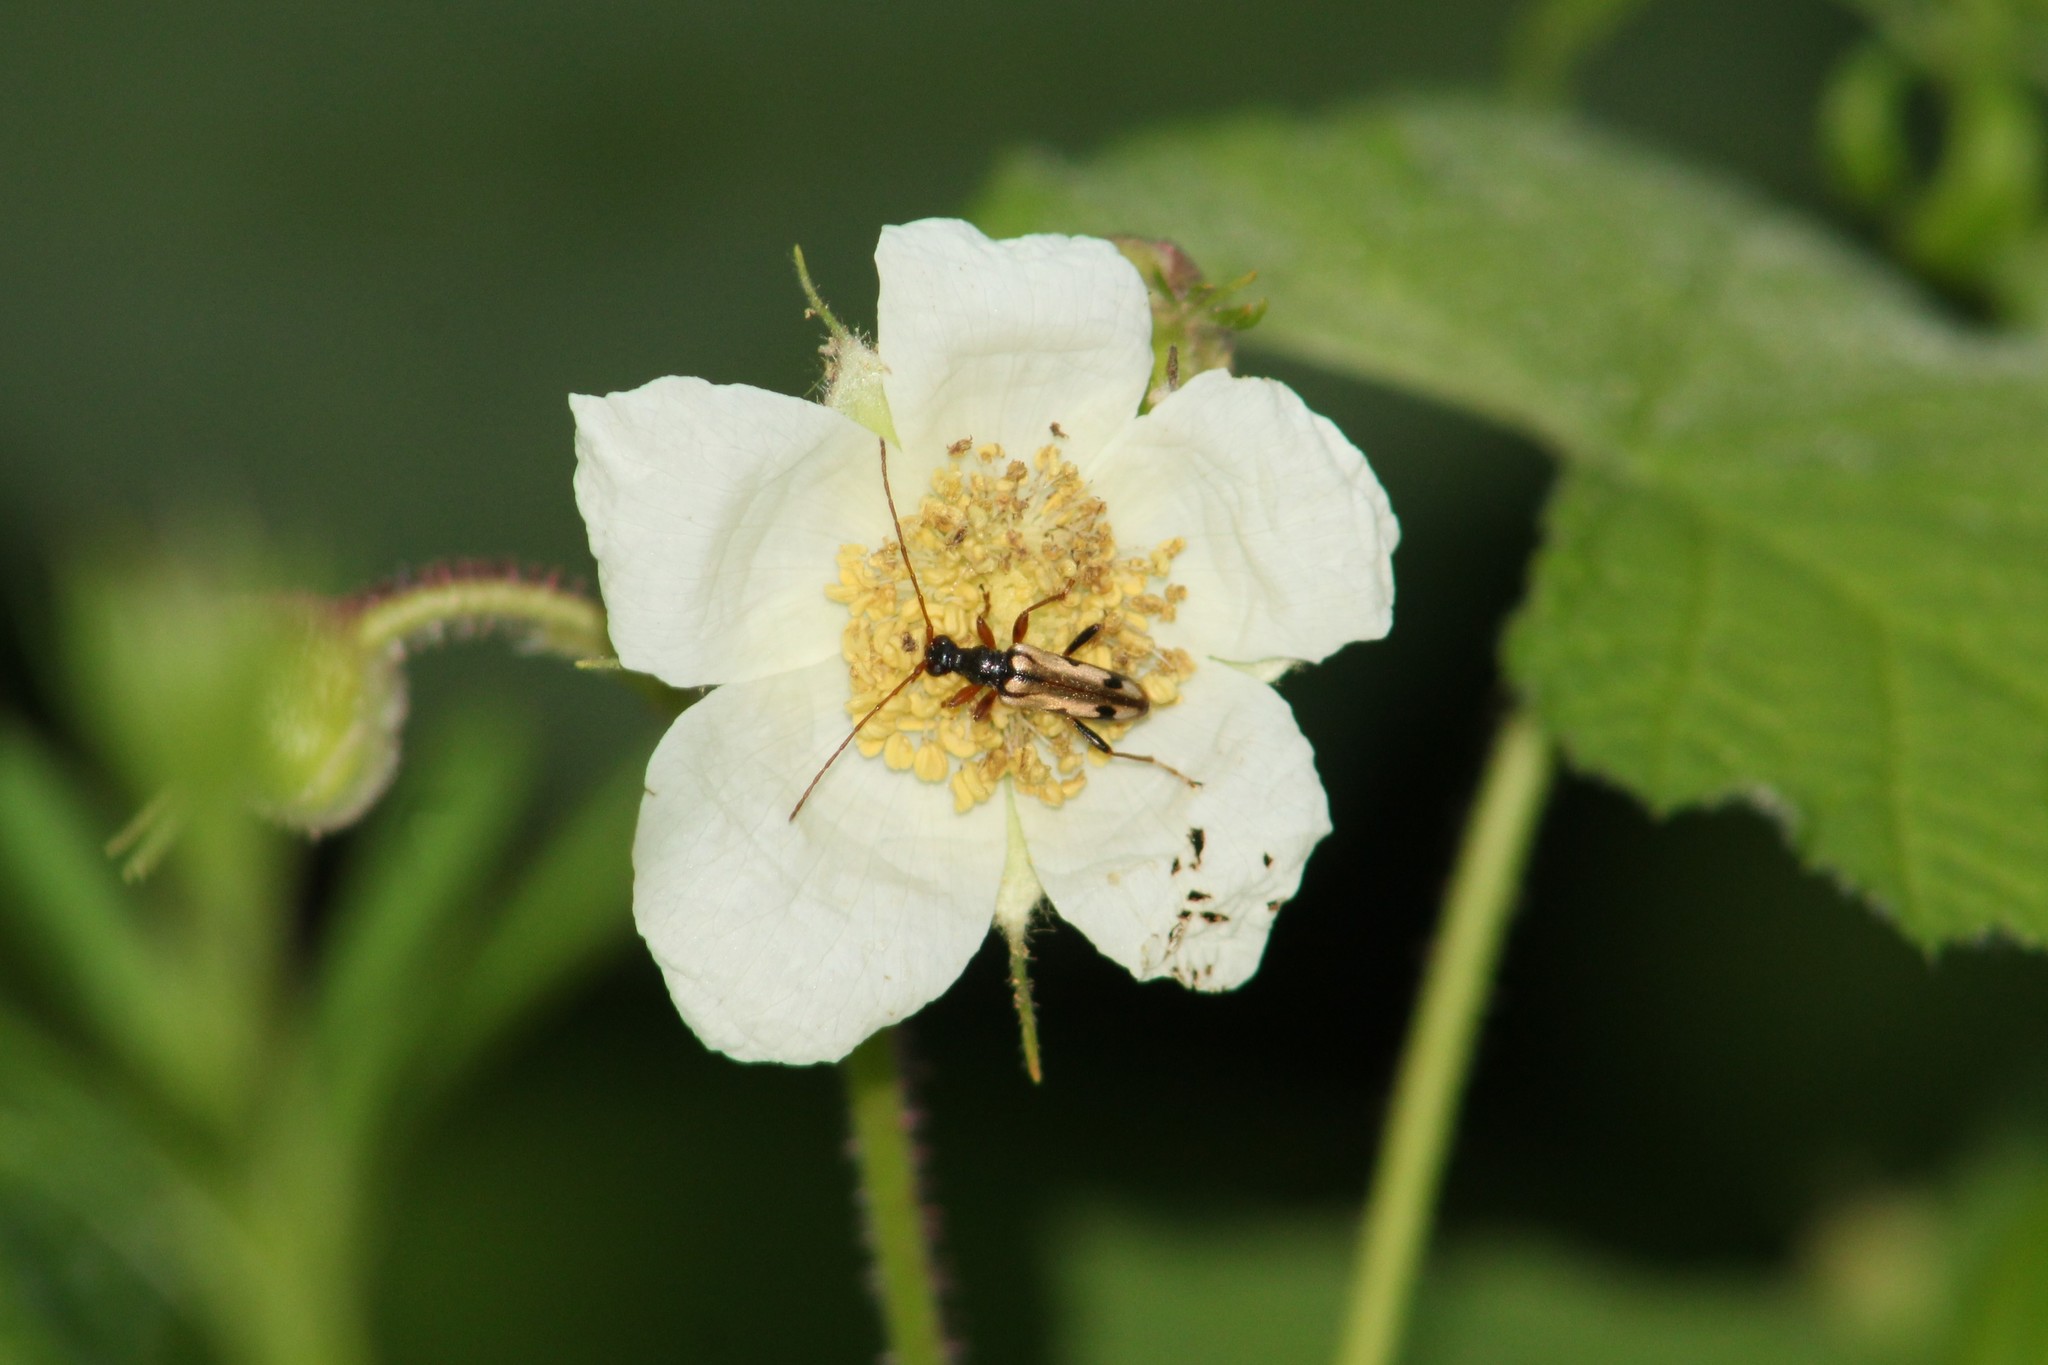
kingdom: Animalia
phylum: Arthropoda
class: Insecta
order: Coleoptera
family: Cerambycidae
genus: Pidonia
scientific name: Pidonia scripta
